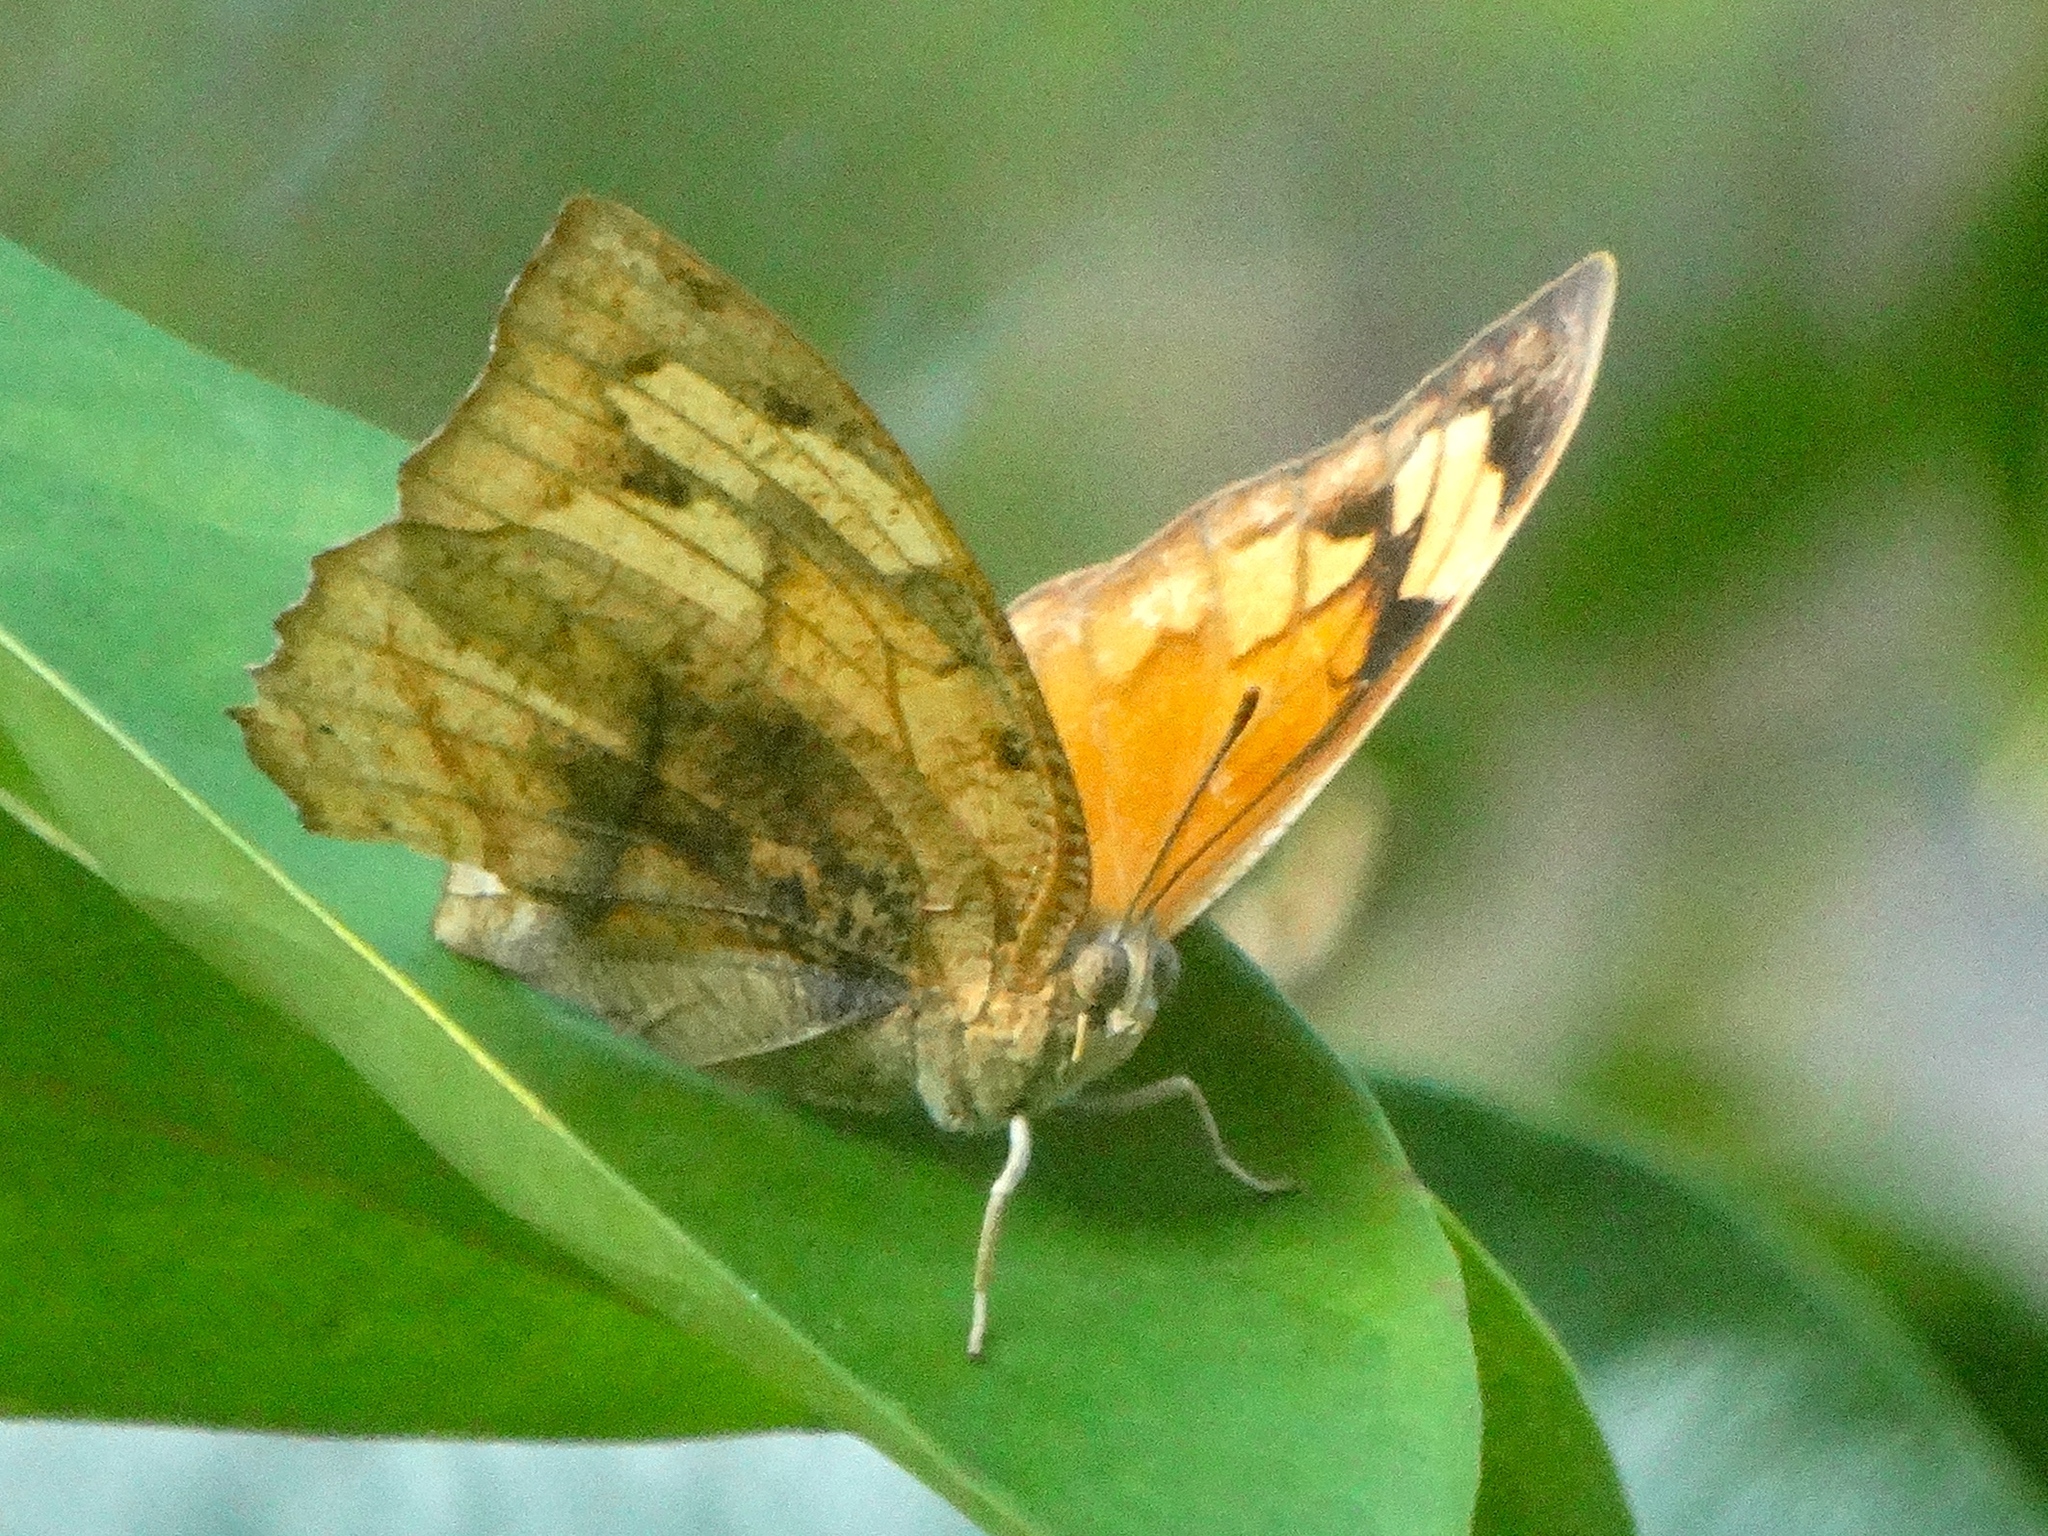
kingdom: Animalia
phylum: Arthropoda
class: Insecta
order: Lepidoptera
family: Nymphalidae
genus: Fountainea
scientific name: Fountainea
